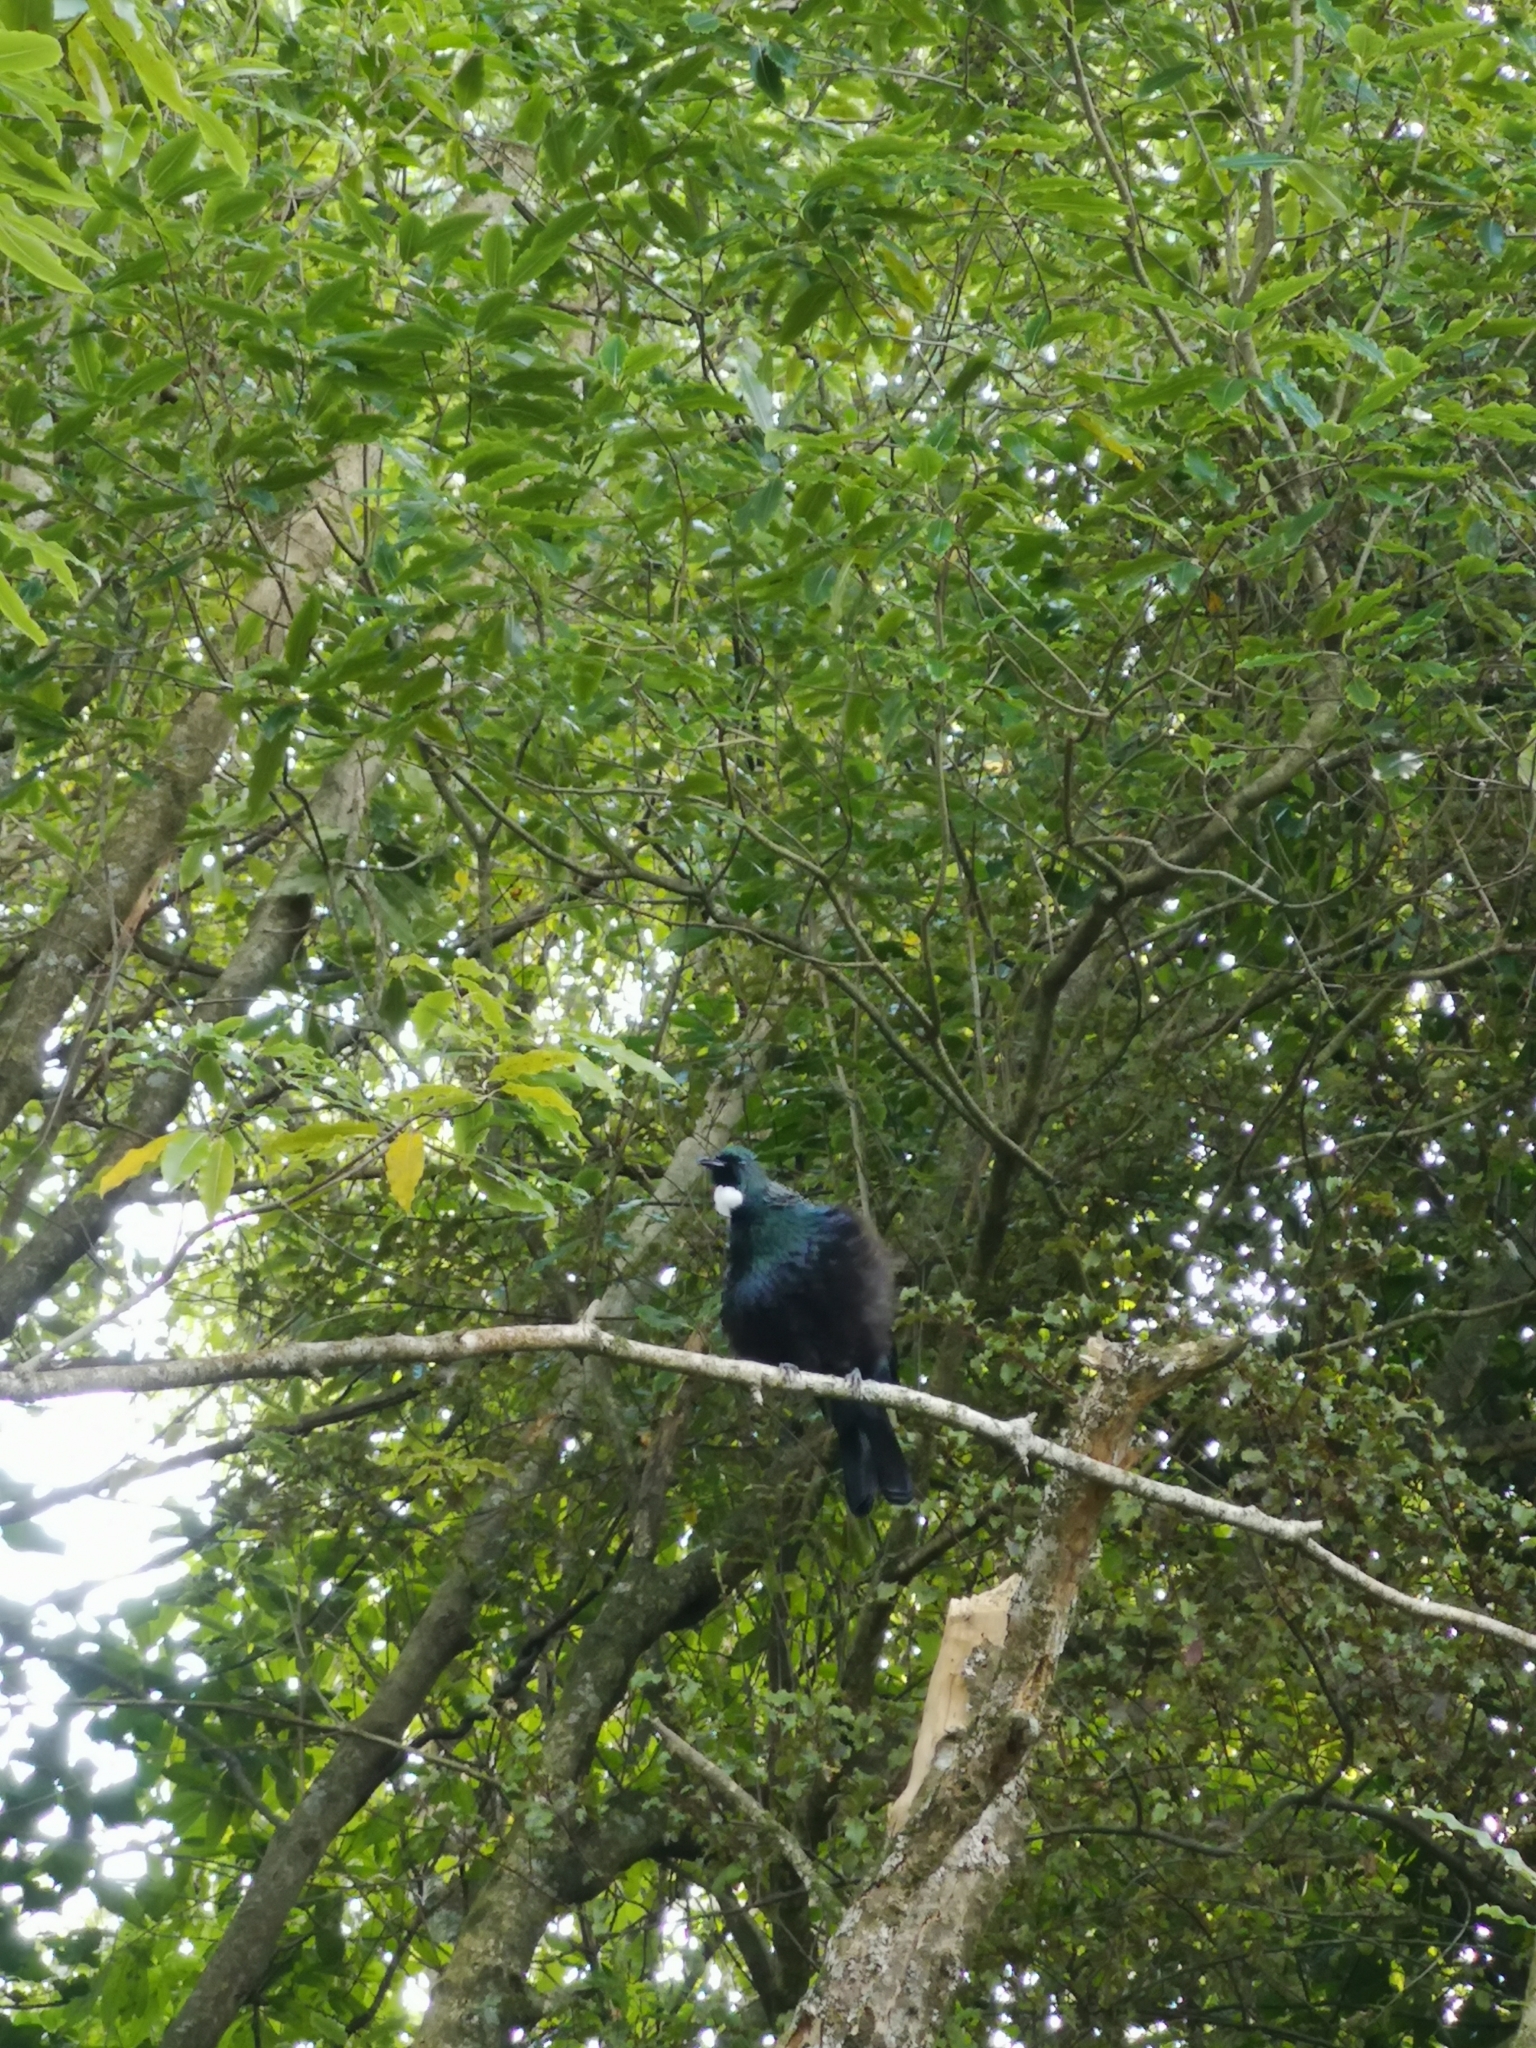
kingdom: Animalia
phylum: Chordata
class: Aves
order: Passeriformes
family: Meliphagidae
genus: Prosthemadera
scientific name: Prosthemadera novaeseelandiae
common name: Tui
